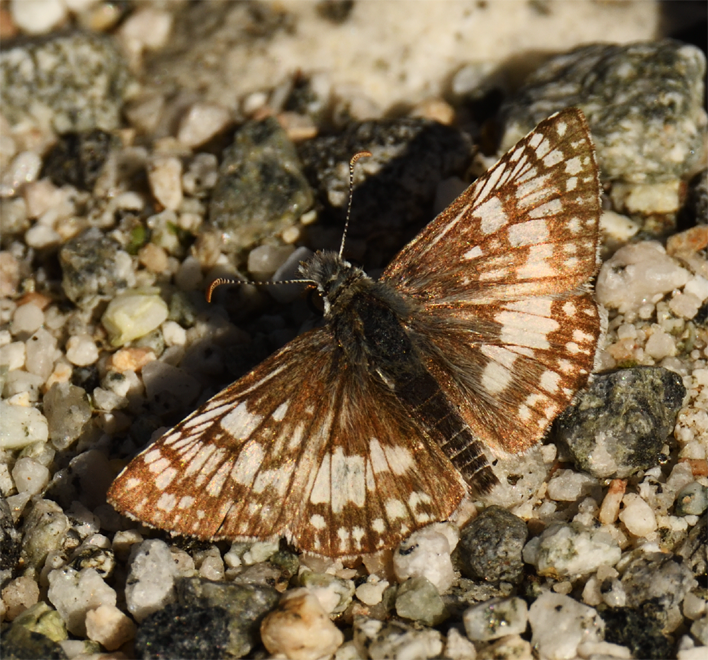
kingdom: Animalia
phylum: Arthropoda
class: Insecta
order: Lepidoptera
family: Hesperiidae
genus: Burnsius
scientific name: Burnsius albezens
